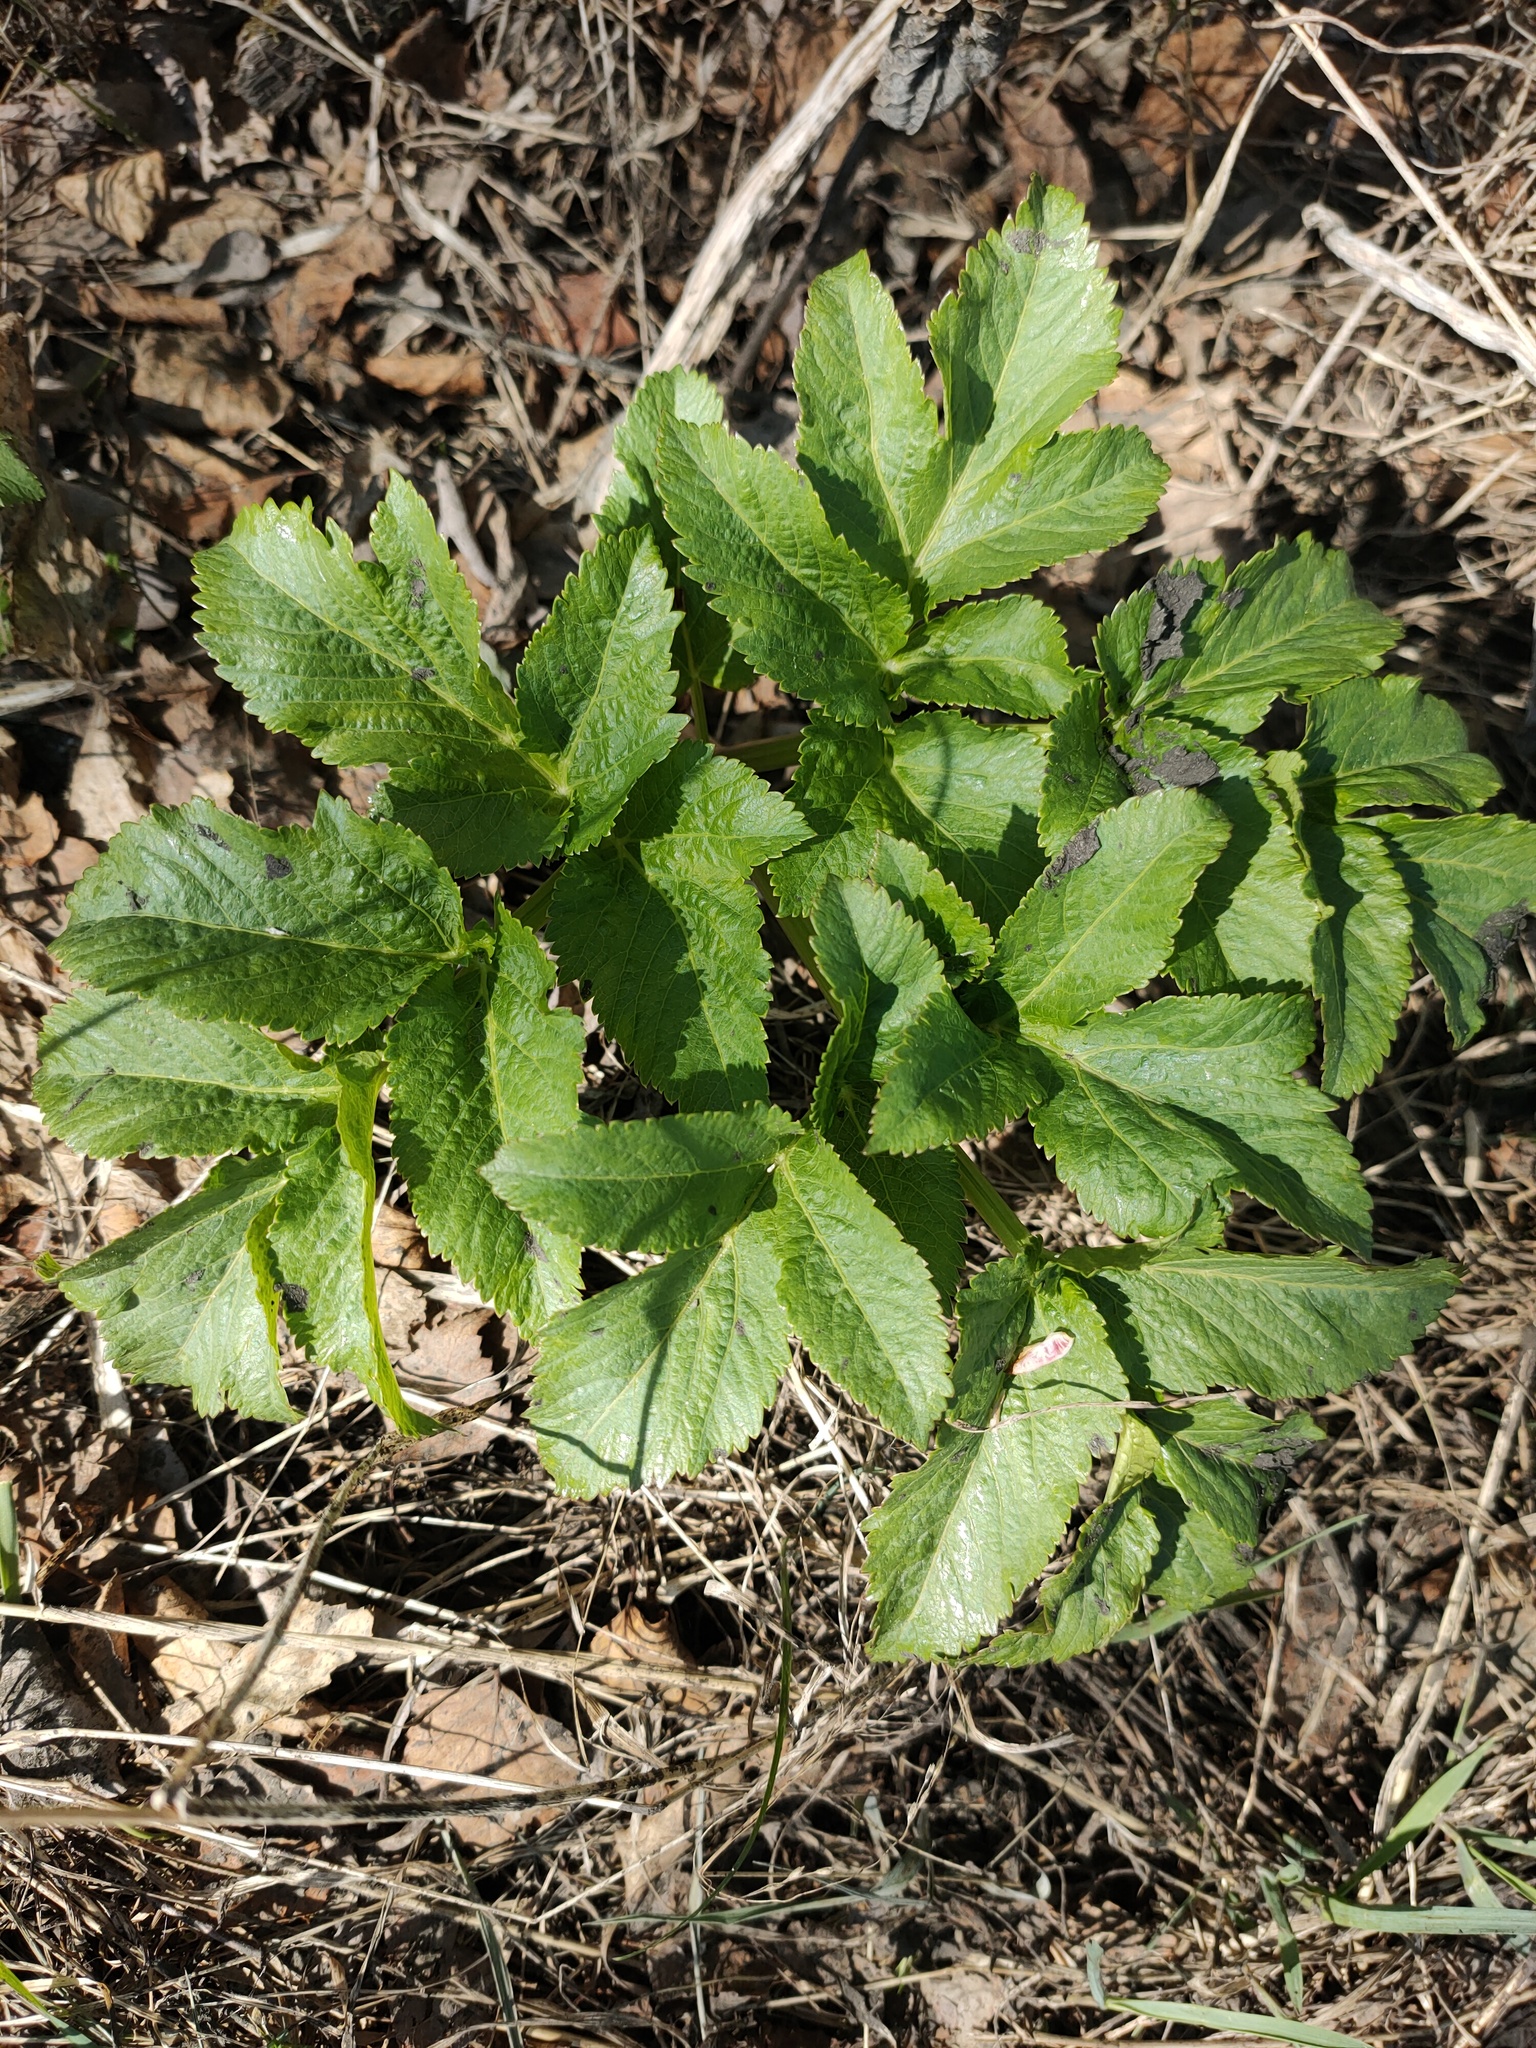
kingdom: Plantae
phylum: Tracheophyta
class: Magnoliopsida
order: Apiales
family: Apiaceae
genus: Angelica
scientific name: Angelica archangelica
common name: Garden angelica
